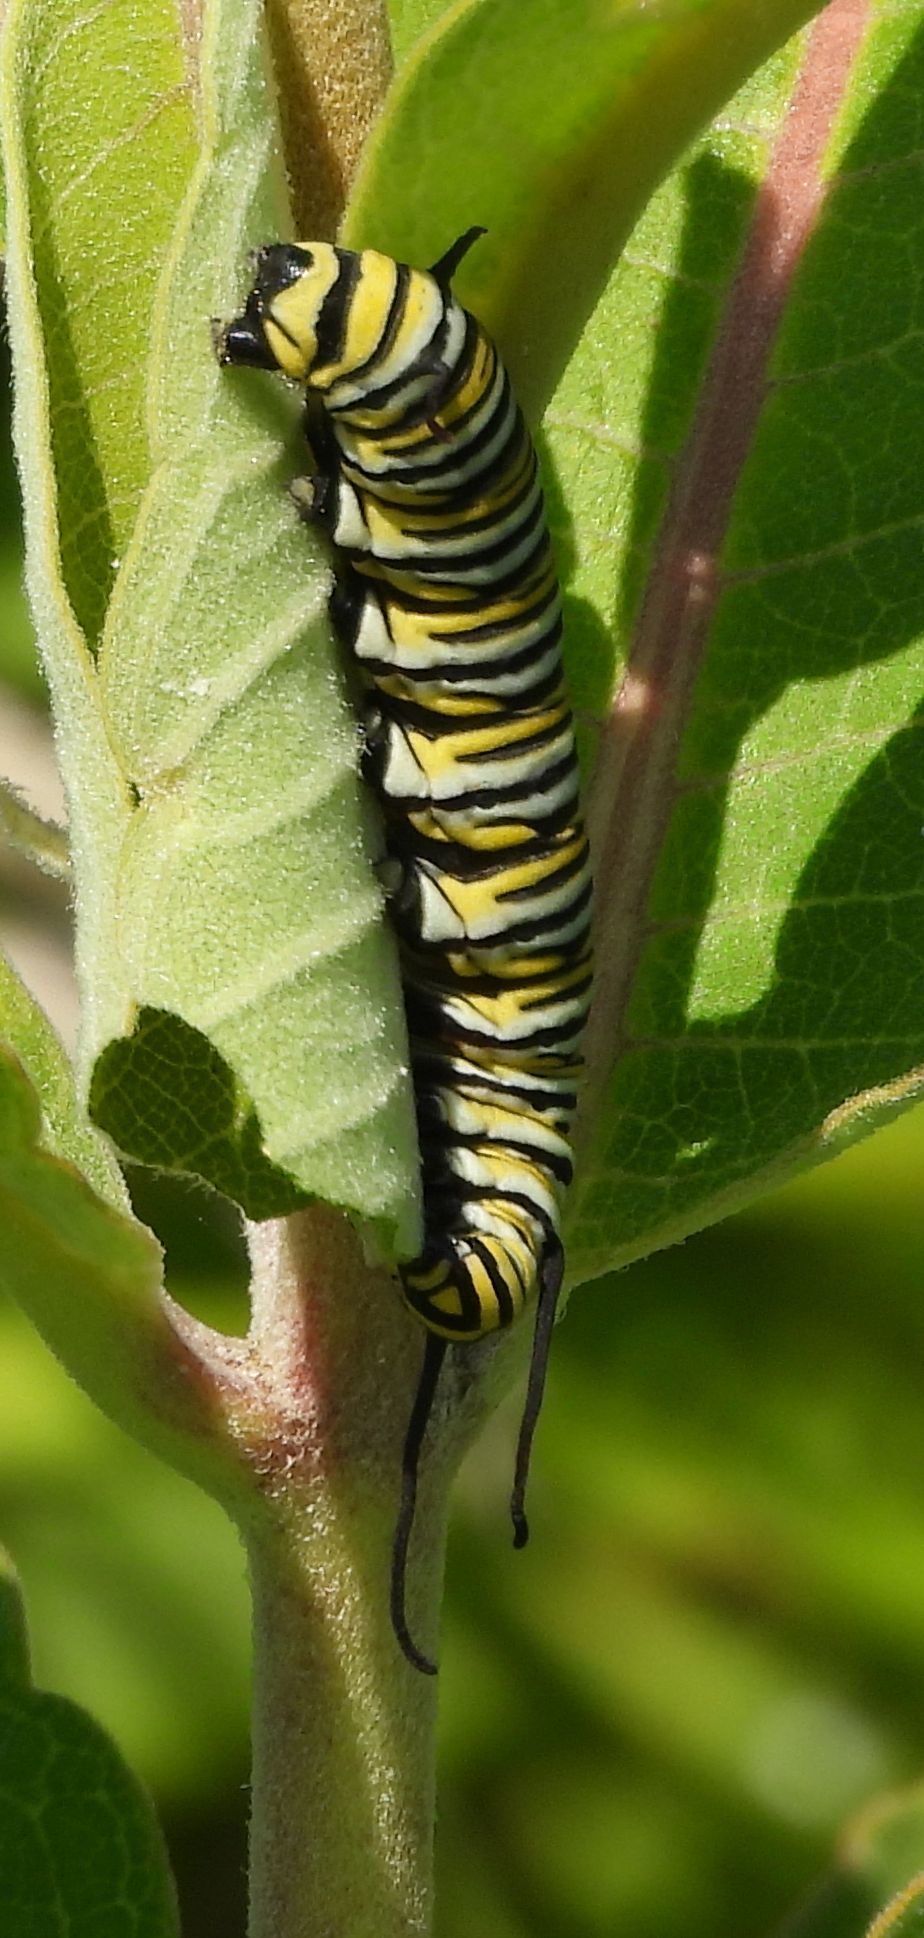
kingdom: Animalia
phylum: Arthropoda
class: Insecta
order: Lepidoptera
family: Nymphalidae
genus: Danaus
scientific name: Danaus plexippus
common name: Monarch
